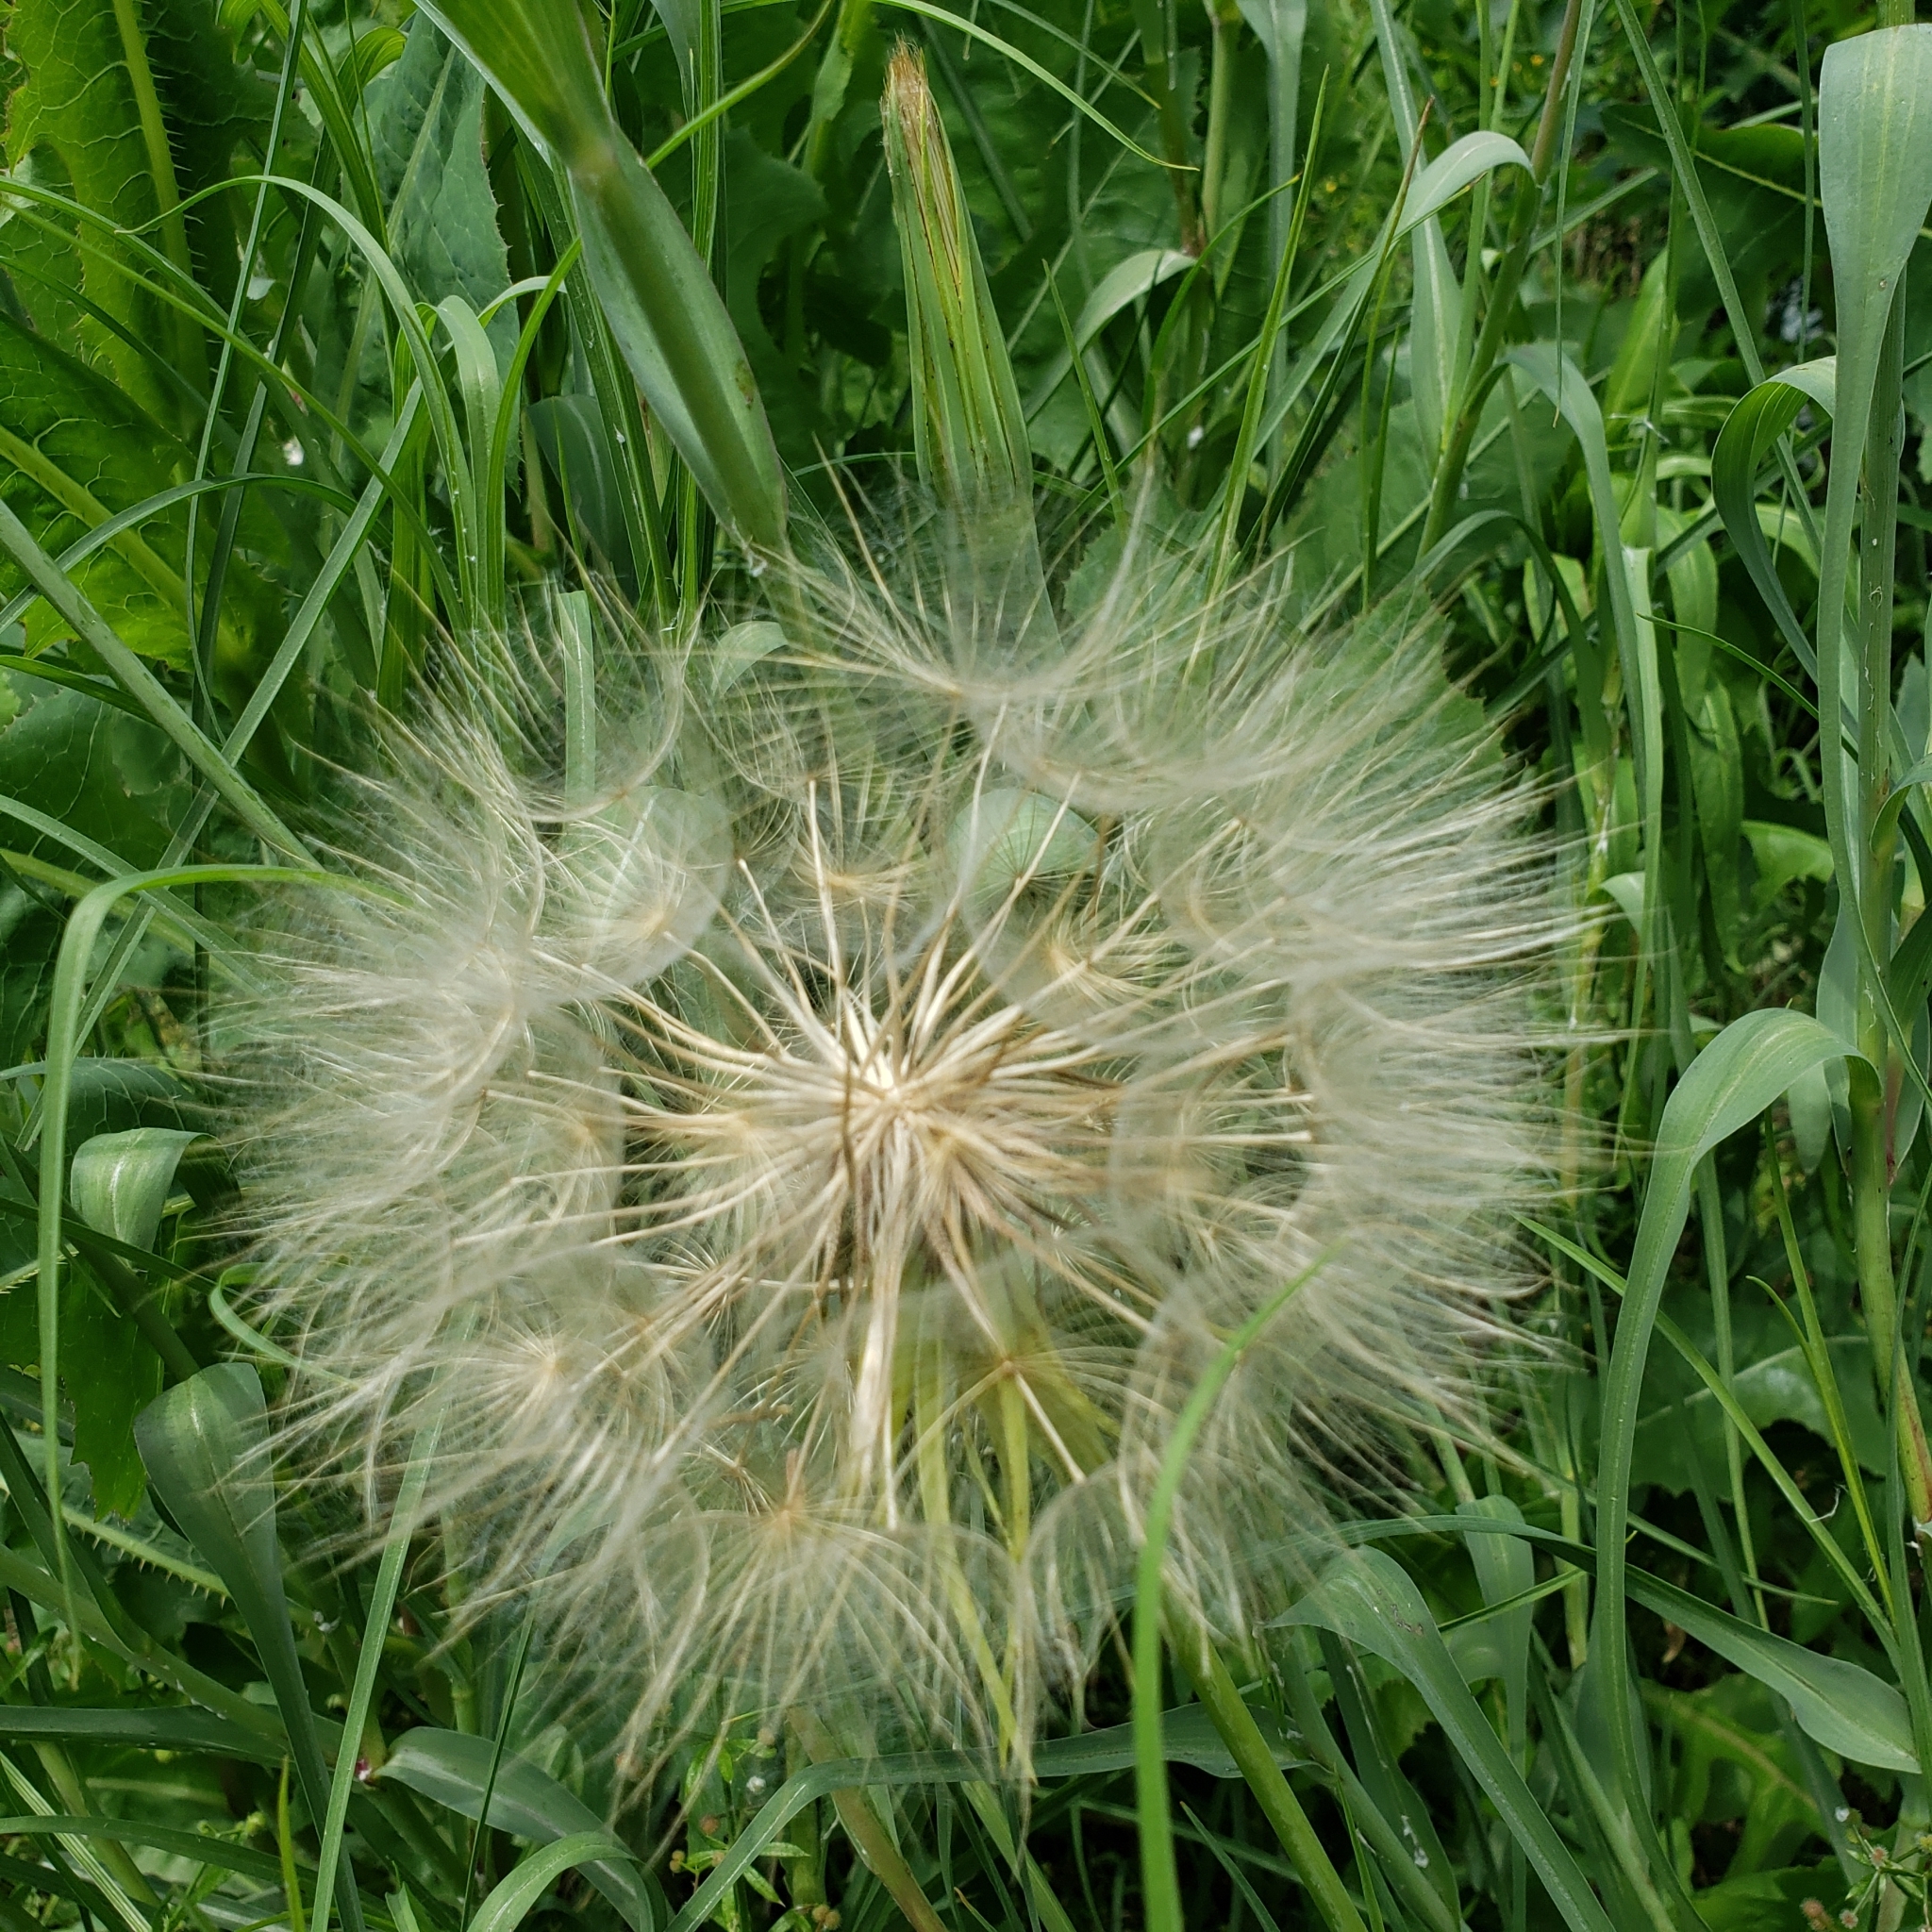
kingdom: Plantae
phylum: Tracheophyta
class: Magnoliopsida
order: Asterales
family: Asteraceae
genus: Tragopogon
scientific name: Tragopogon dubius
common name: Yellow salsify
